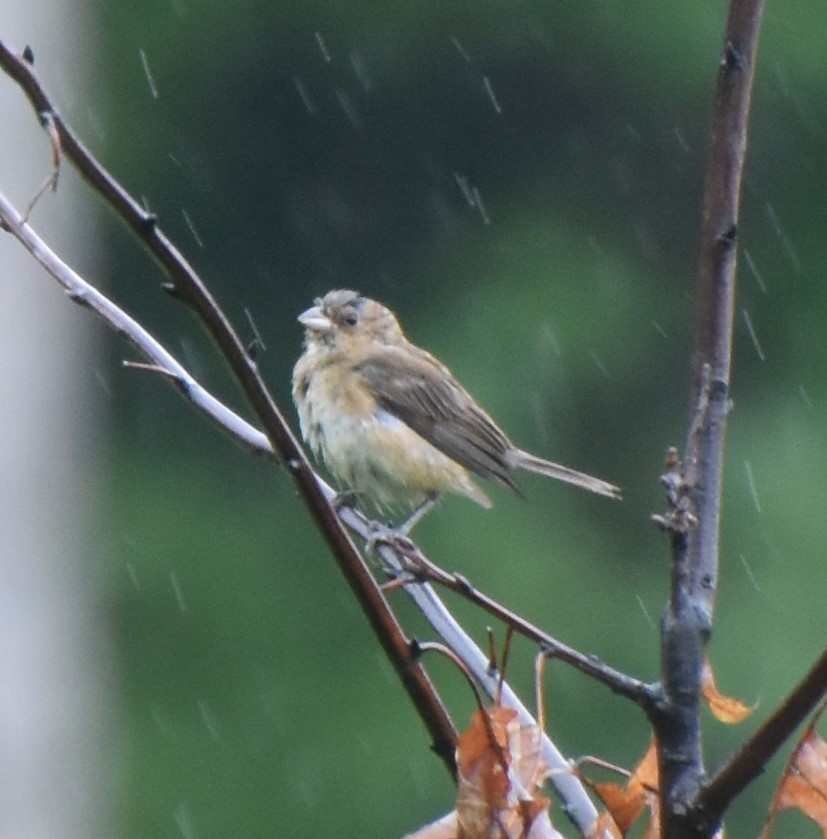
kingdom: Animalia
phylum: Chordata
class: Aves
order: Passeriformes
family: Cardinalidae
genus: Passerina
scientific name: Passerina cyanea
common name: Indigo bunting
